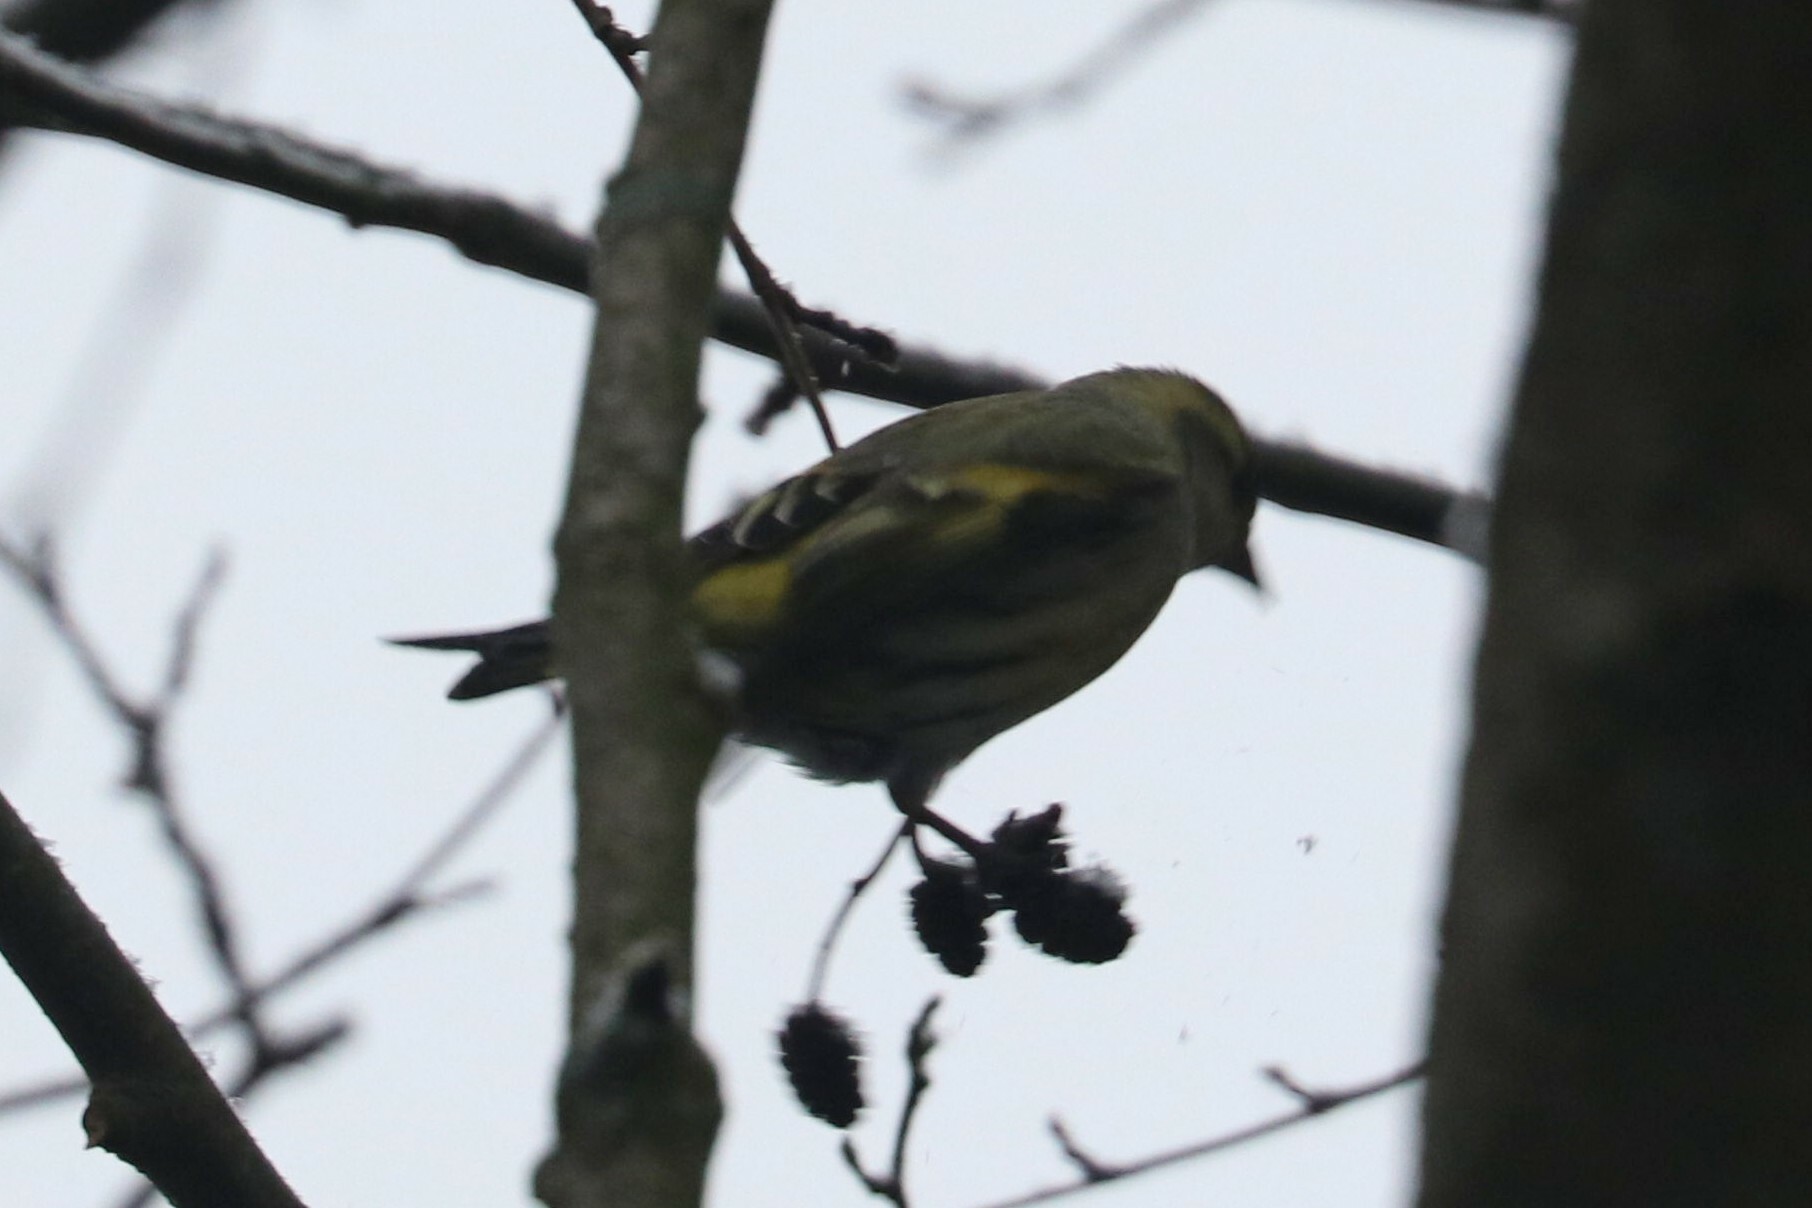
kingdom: Animalia
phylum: Chordata
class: Aves
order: Passeriformes
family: Fringillidae
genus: Spinus
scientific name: Spinus spinus
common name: Eurasian siskin
